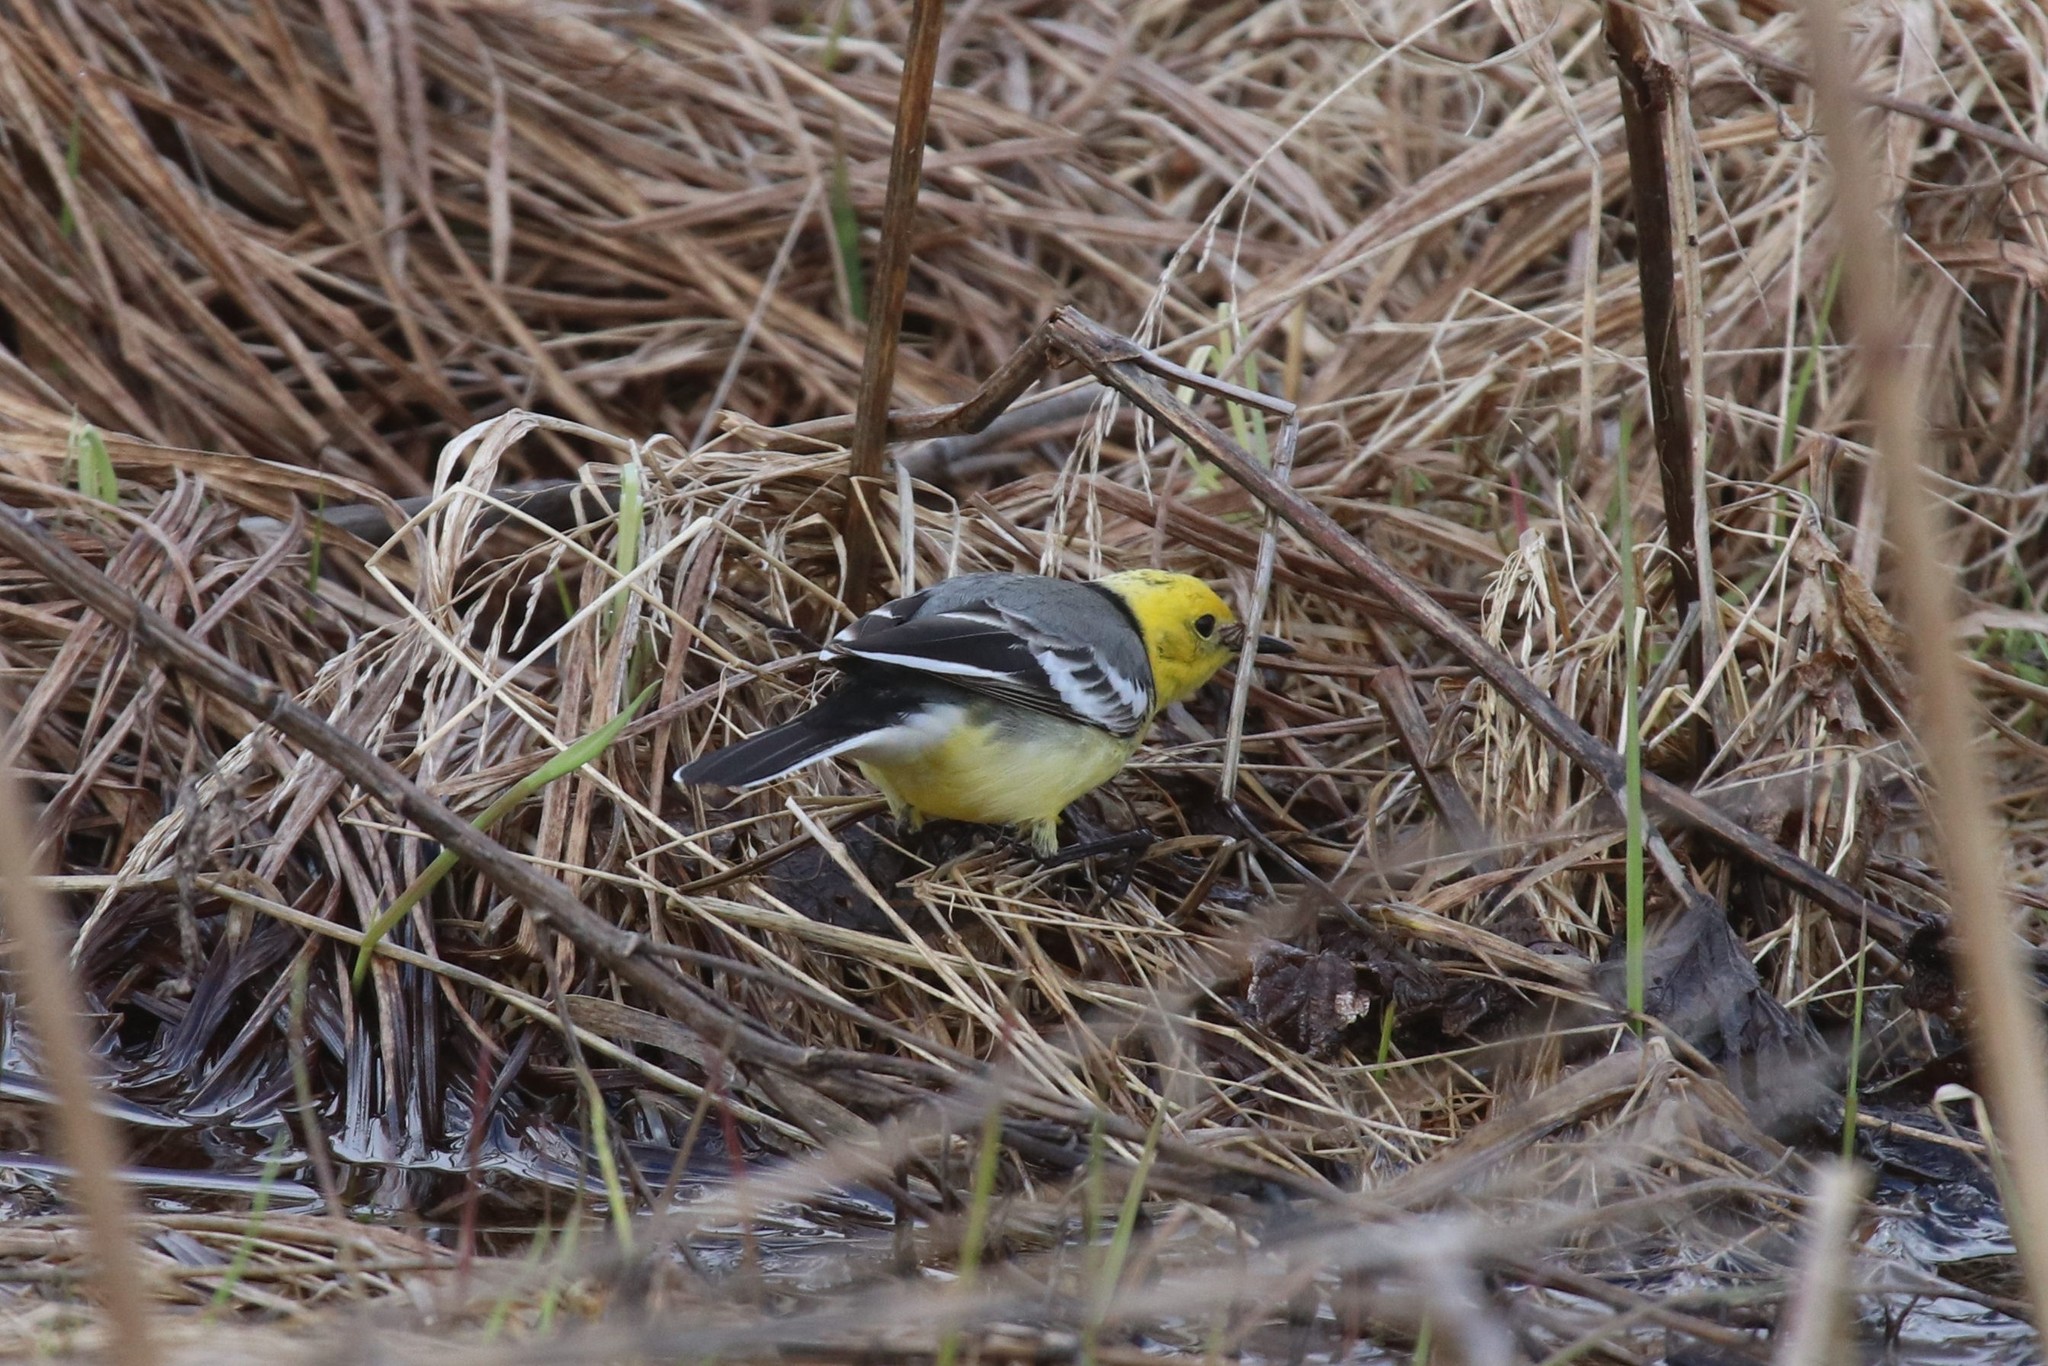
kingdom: Animalia
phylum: Chordata
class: Aves
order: Passeriformes
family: Motacillidae
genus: Motacilla
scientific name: Motacilla citreola
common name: Citrine wagtail
